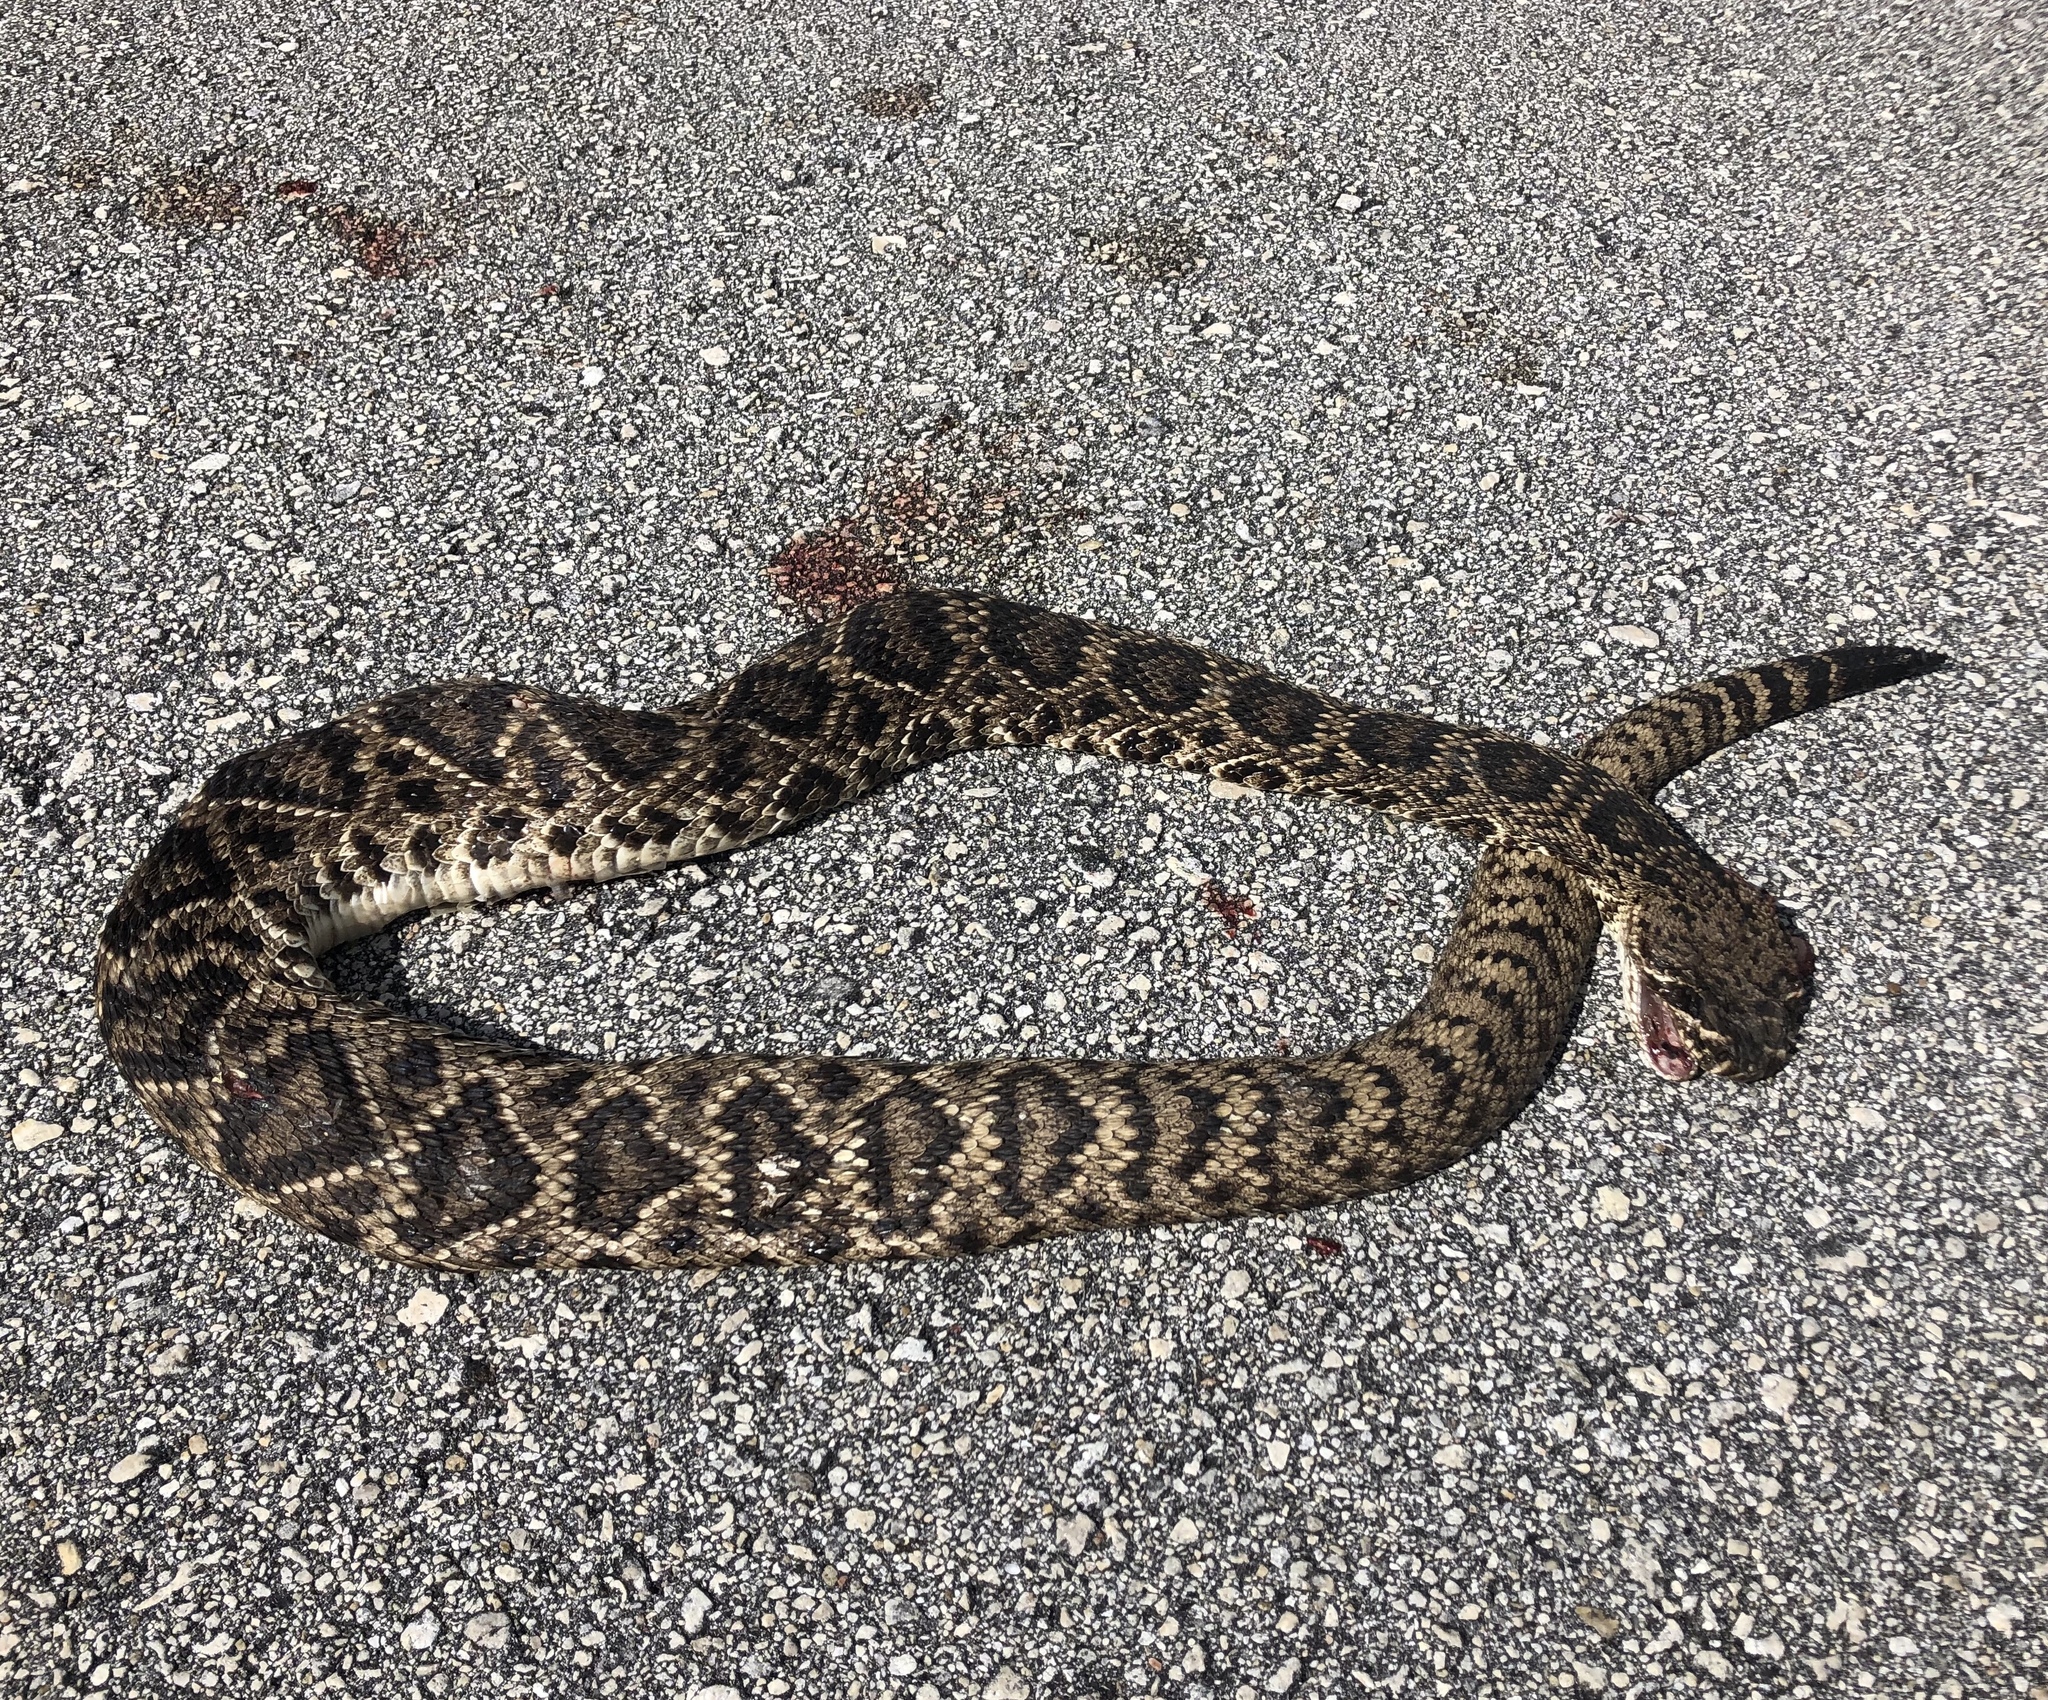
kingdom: Animalia
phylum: Chordata
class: Squamata
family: Viperidae
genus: Crotalus
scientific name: Crotalus adamanteus
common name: Eastern diamondback rattlesnake
